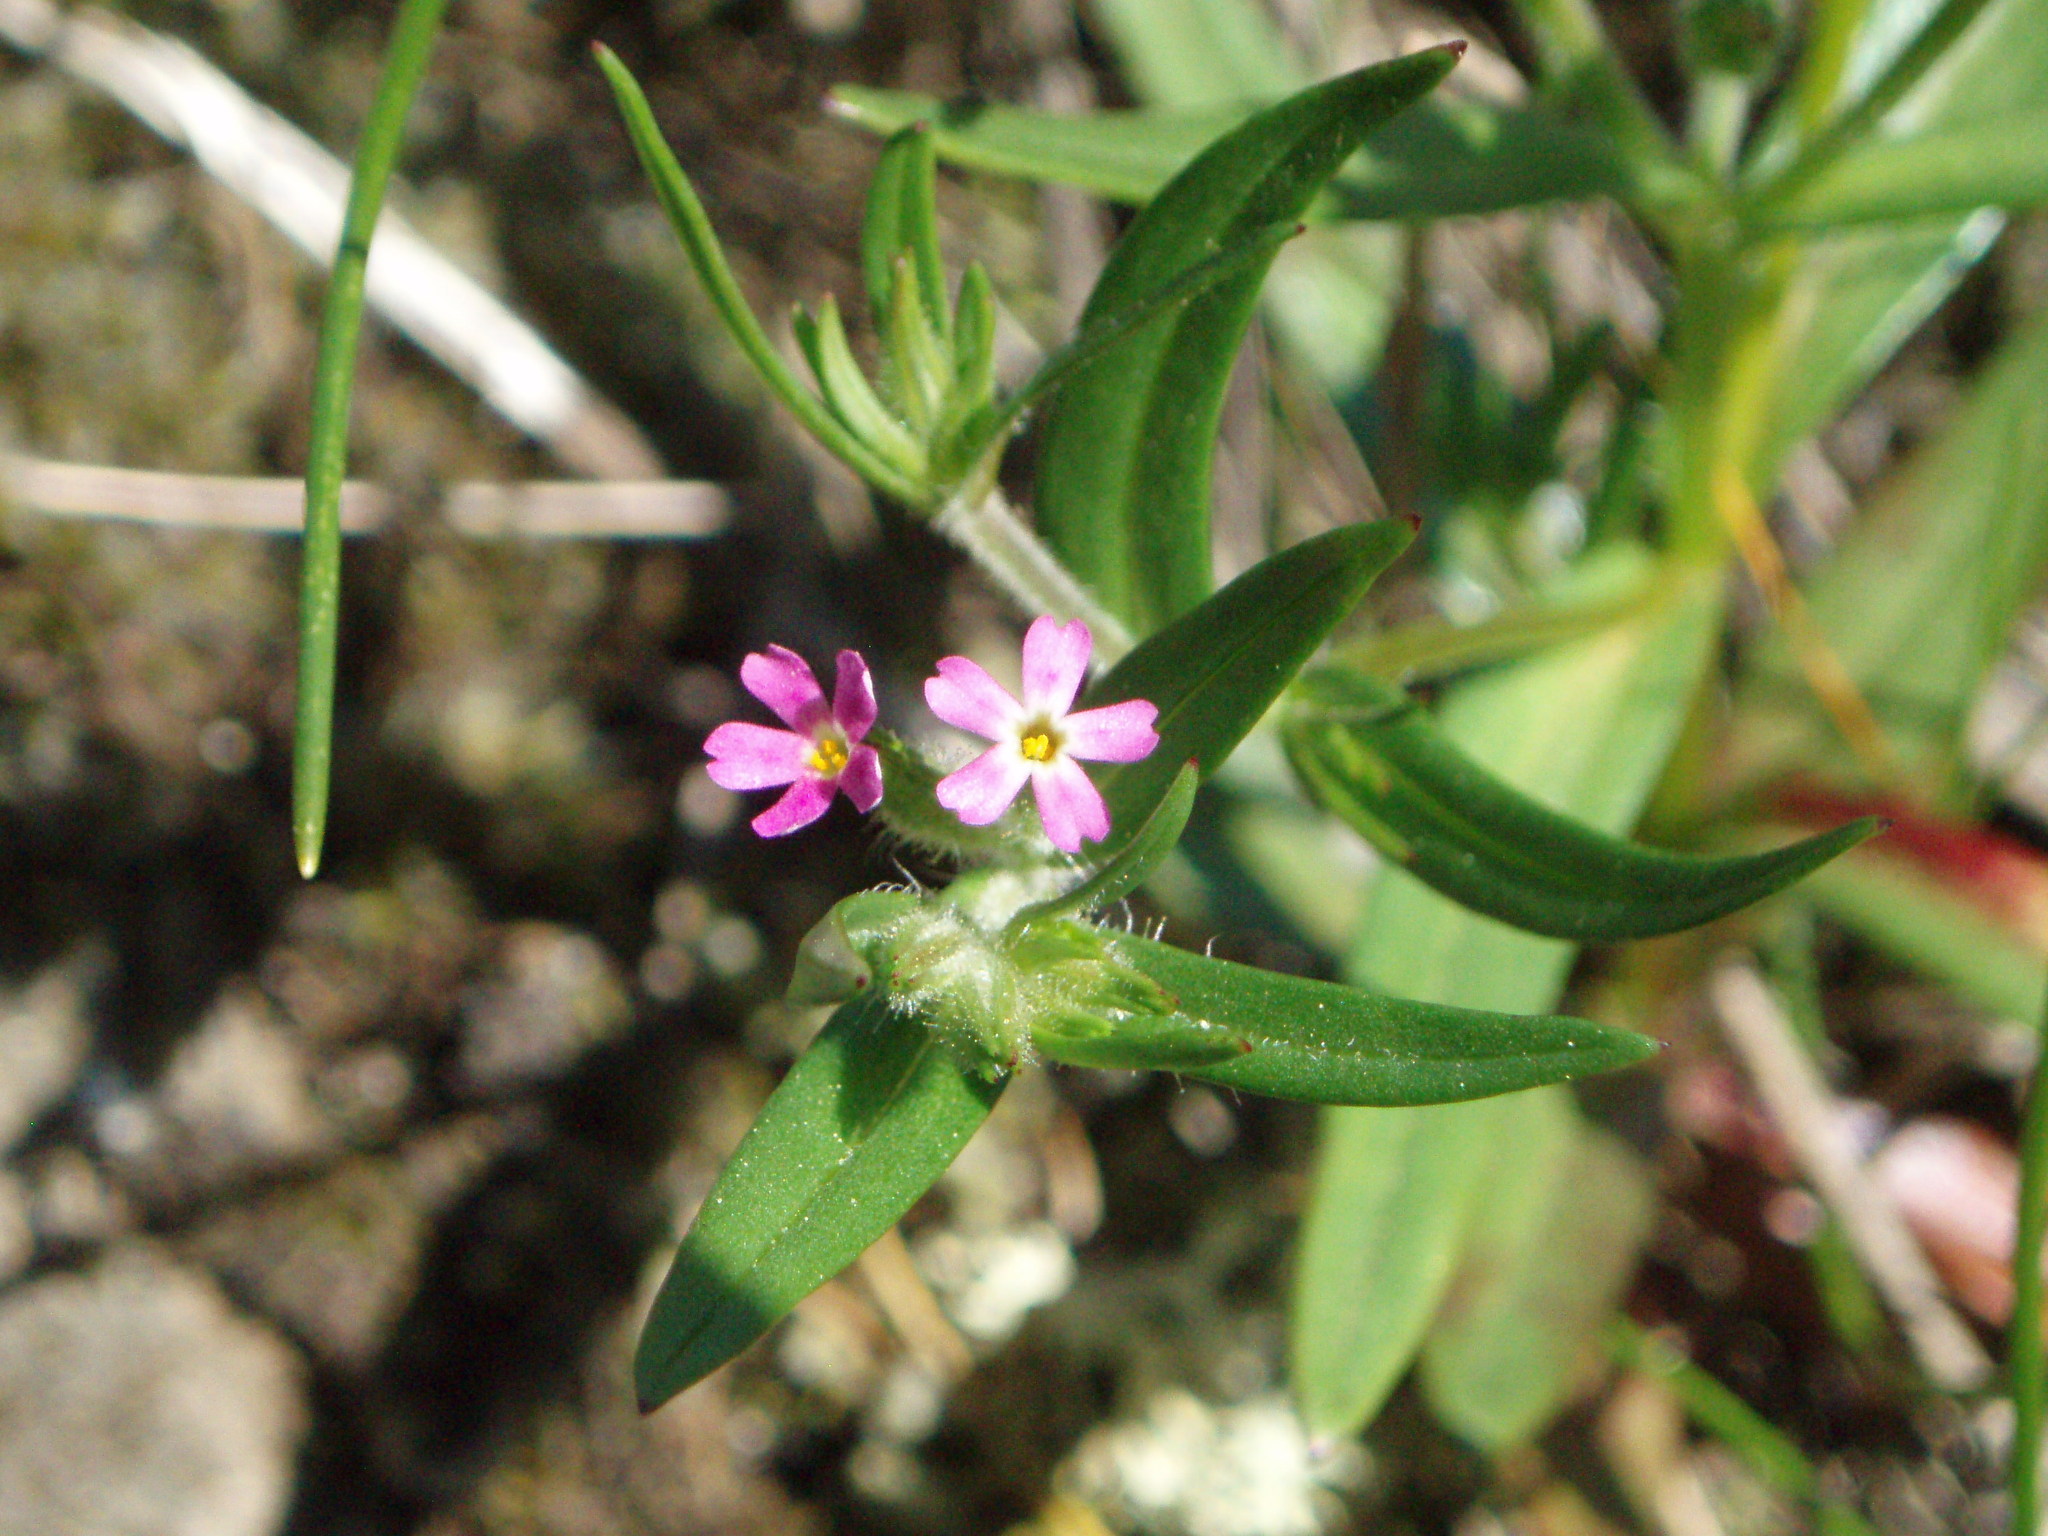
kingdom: Plantae
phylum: Tracheophyta
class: Magnoliopsida
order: Ericales
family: Polemoniaceae
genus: Phlox
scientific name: Phlox gracilis
